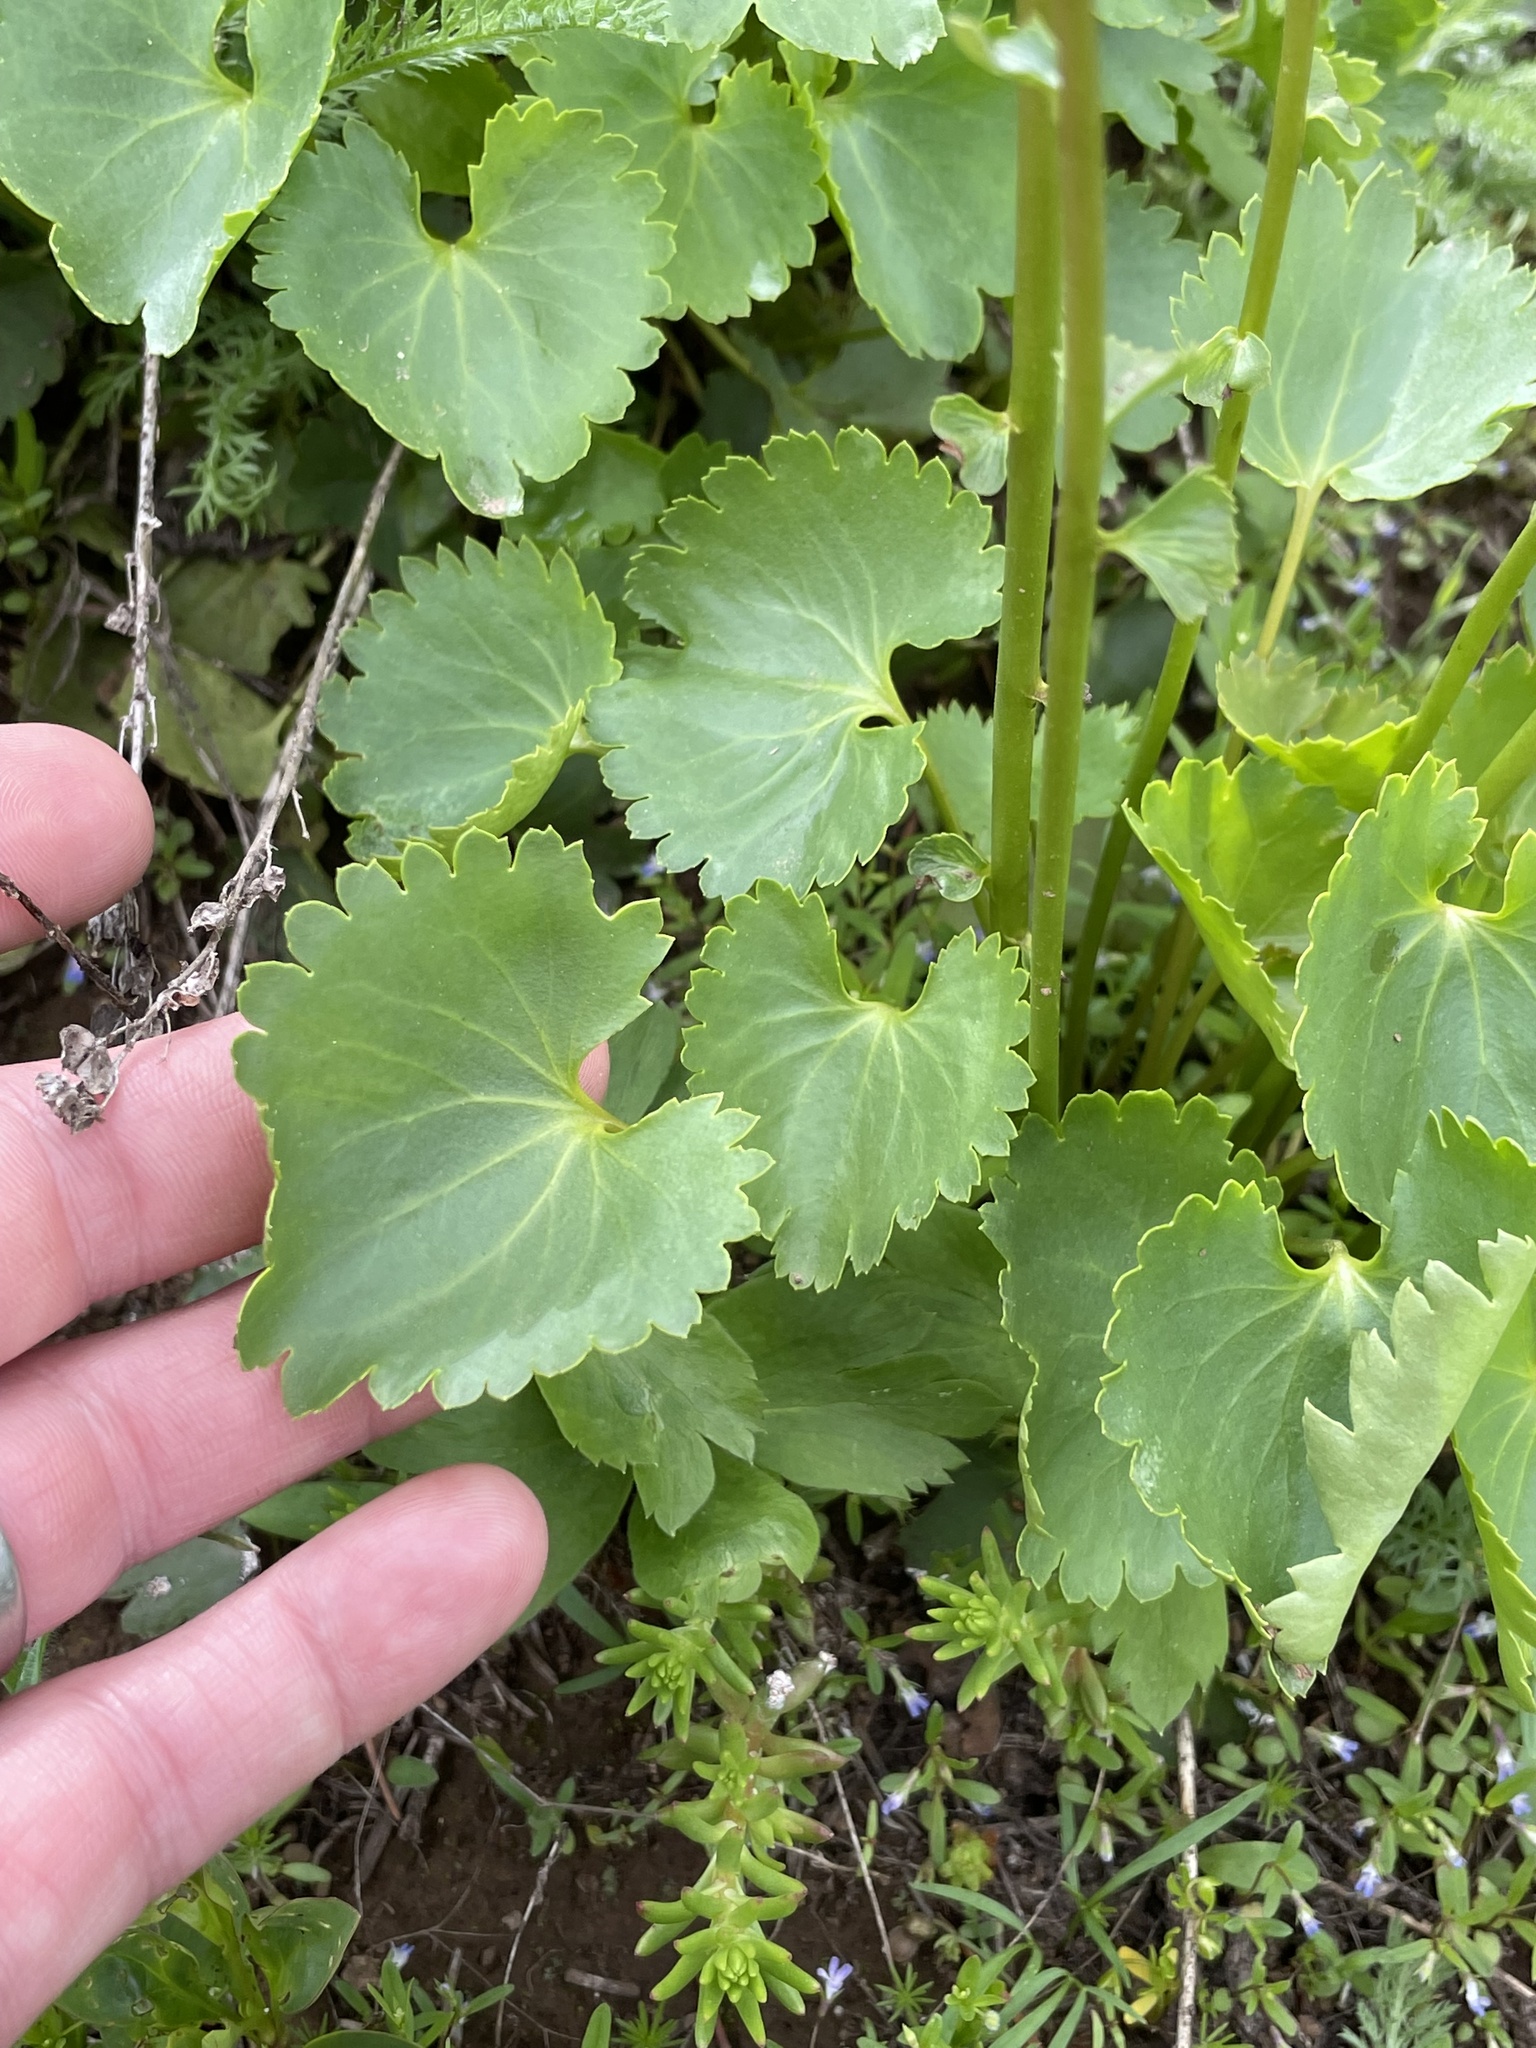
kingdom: Plantae
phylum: Tracheophyta
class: Magnoliopsida
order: Lamiales
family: Plantaginaceae
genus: Synthyris
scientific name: Synthyris missurica
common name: Kitten-tails
